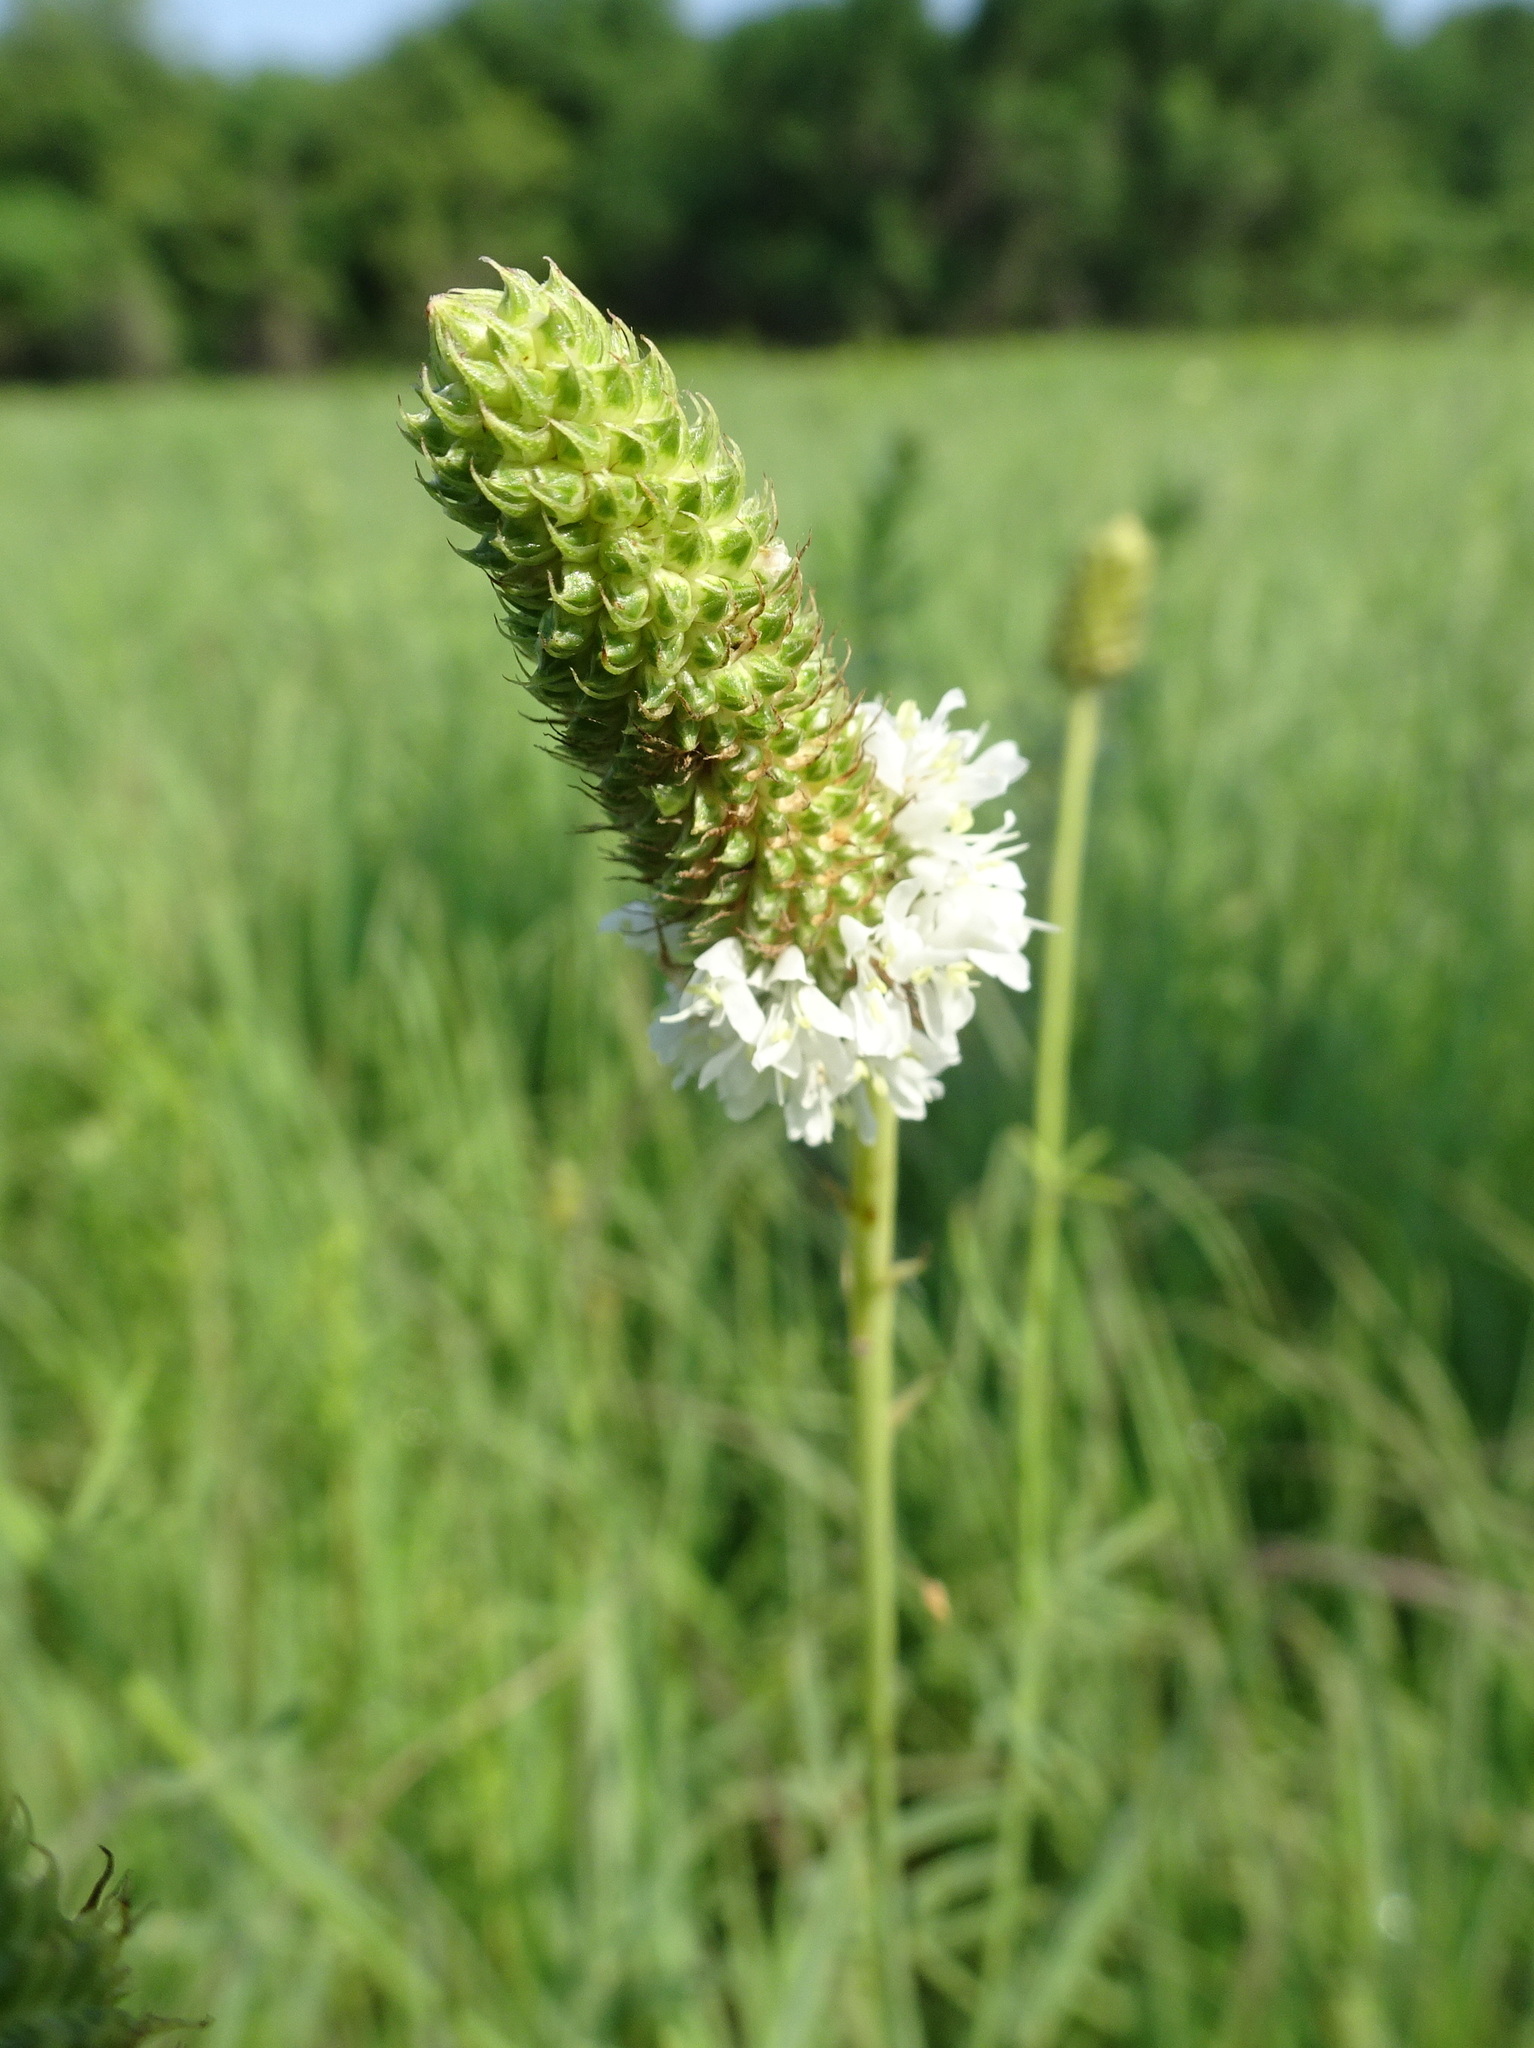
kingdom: Plantae
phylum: Tracheophyta
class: Magnoliopsida
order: Fabales
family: Fabaceae
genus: Dalea
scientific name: Dalea candida
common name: White prairie-clover
